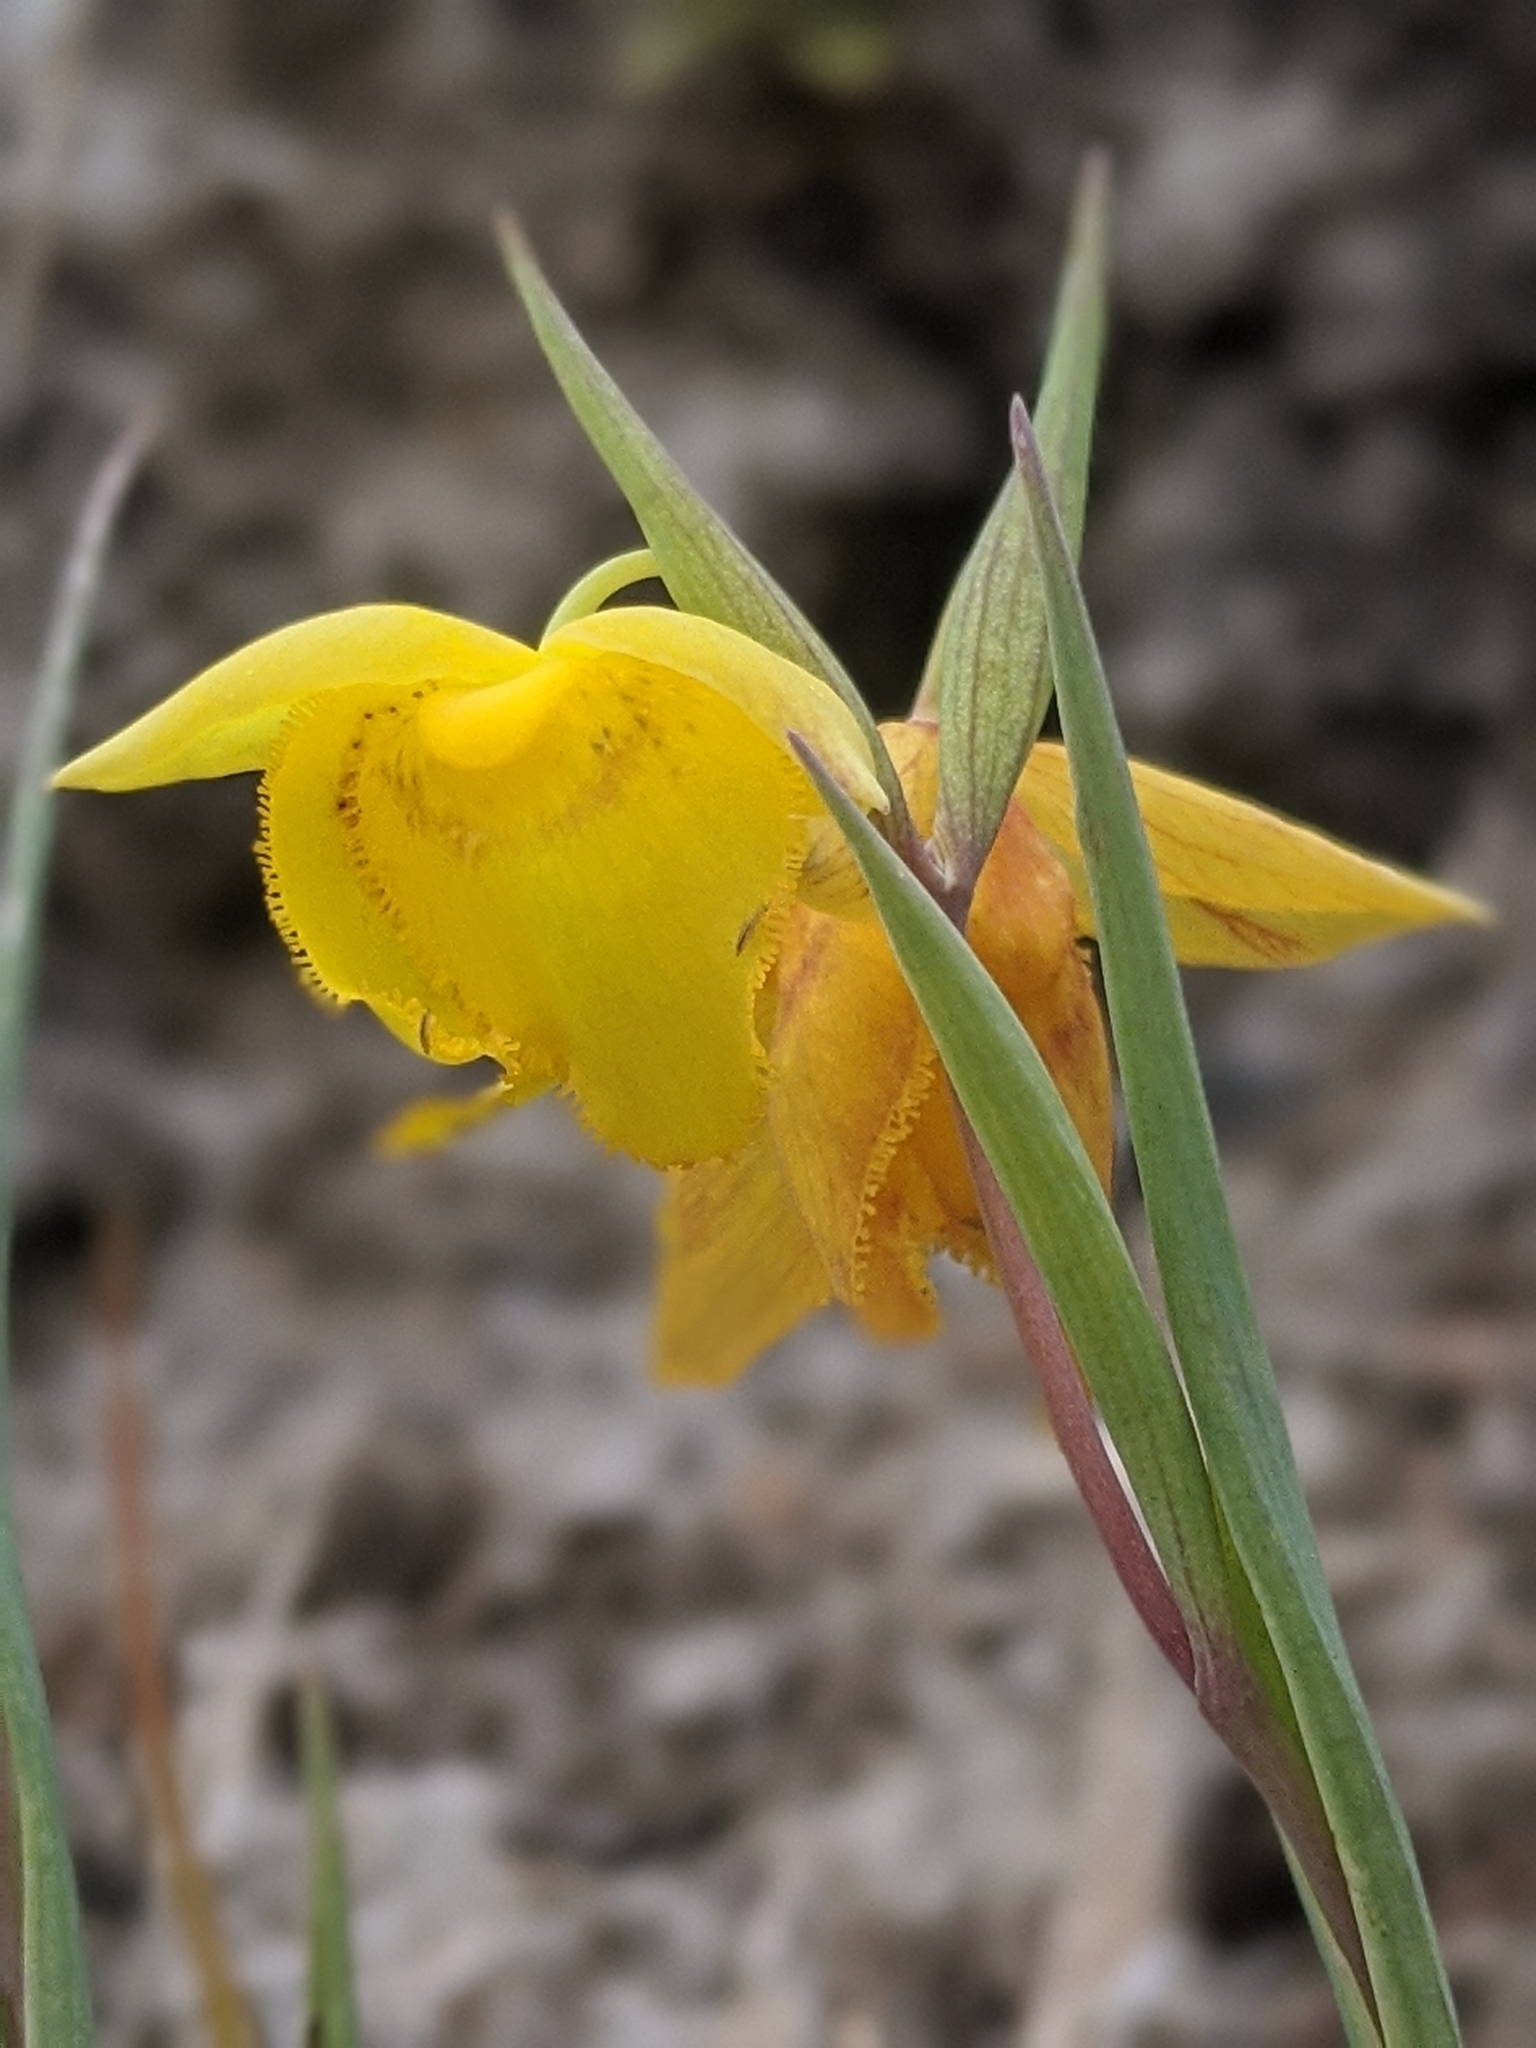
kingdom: Plantae
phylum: Tracheophyta
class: Liliopsida
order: Liliales
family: Liliaceae
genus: Calochortus
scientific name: Calochortus amabilis
